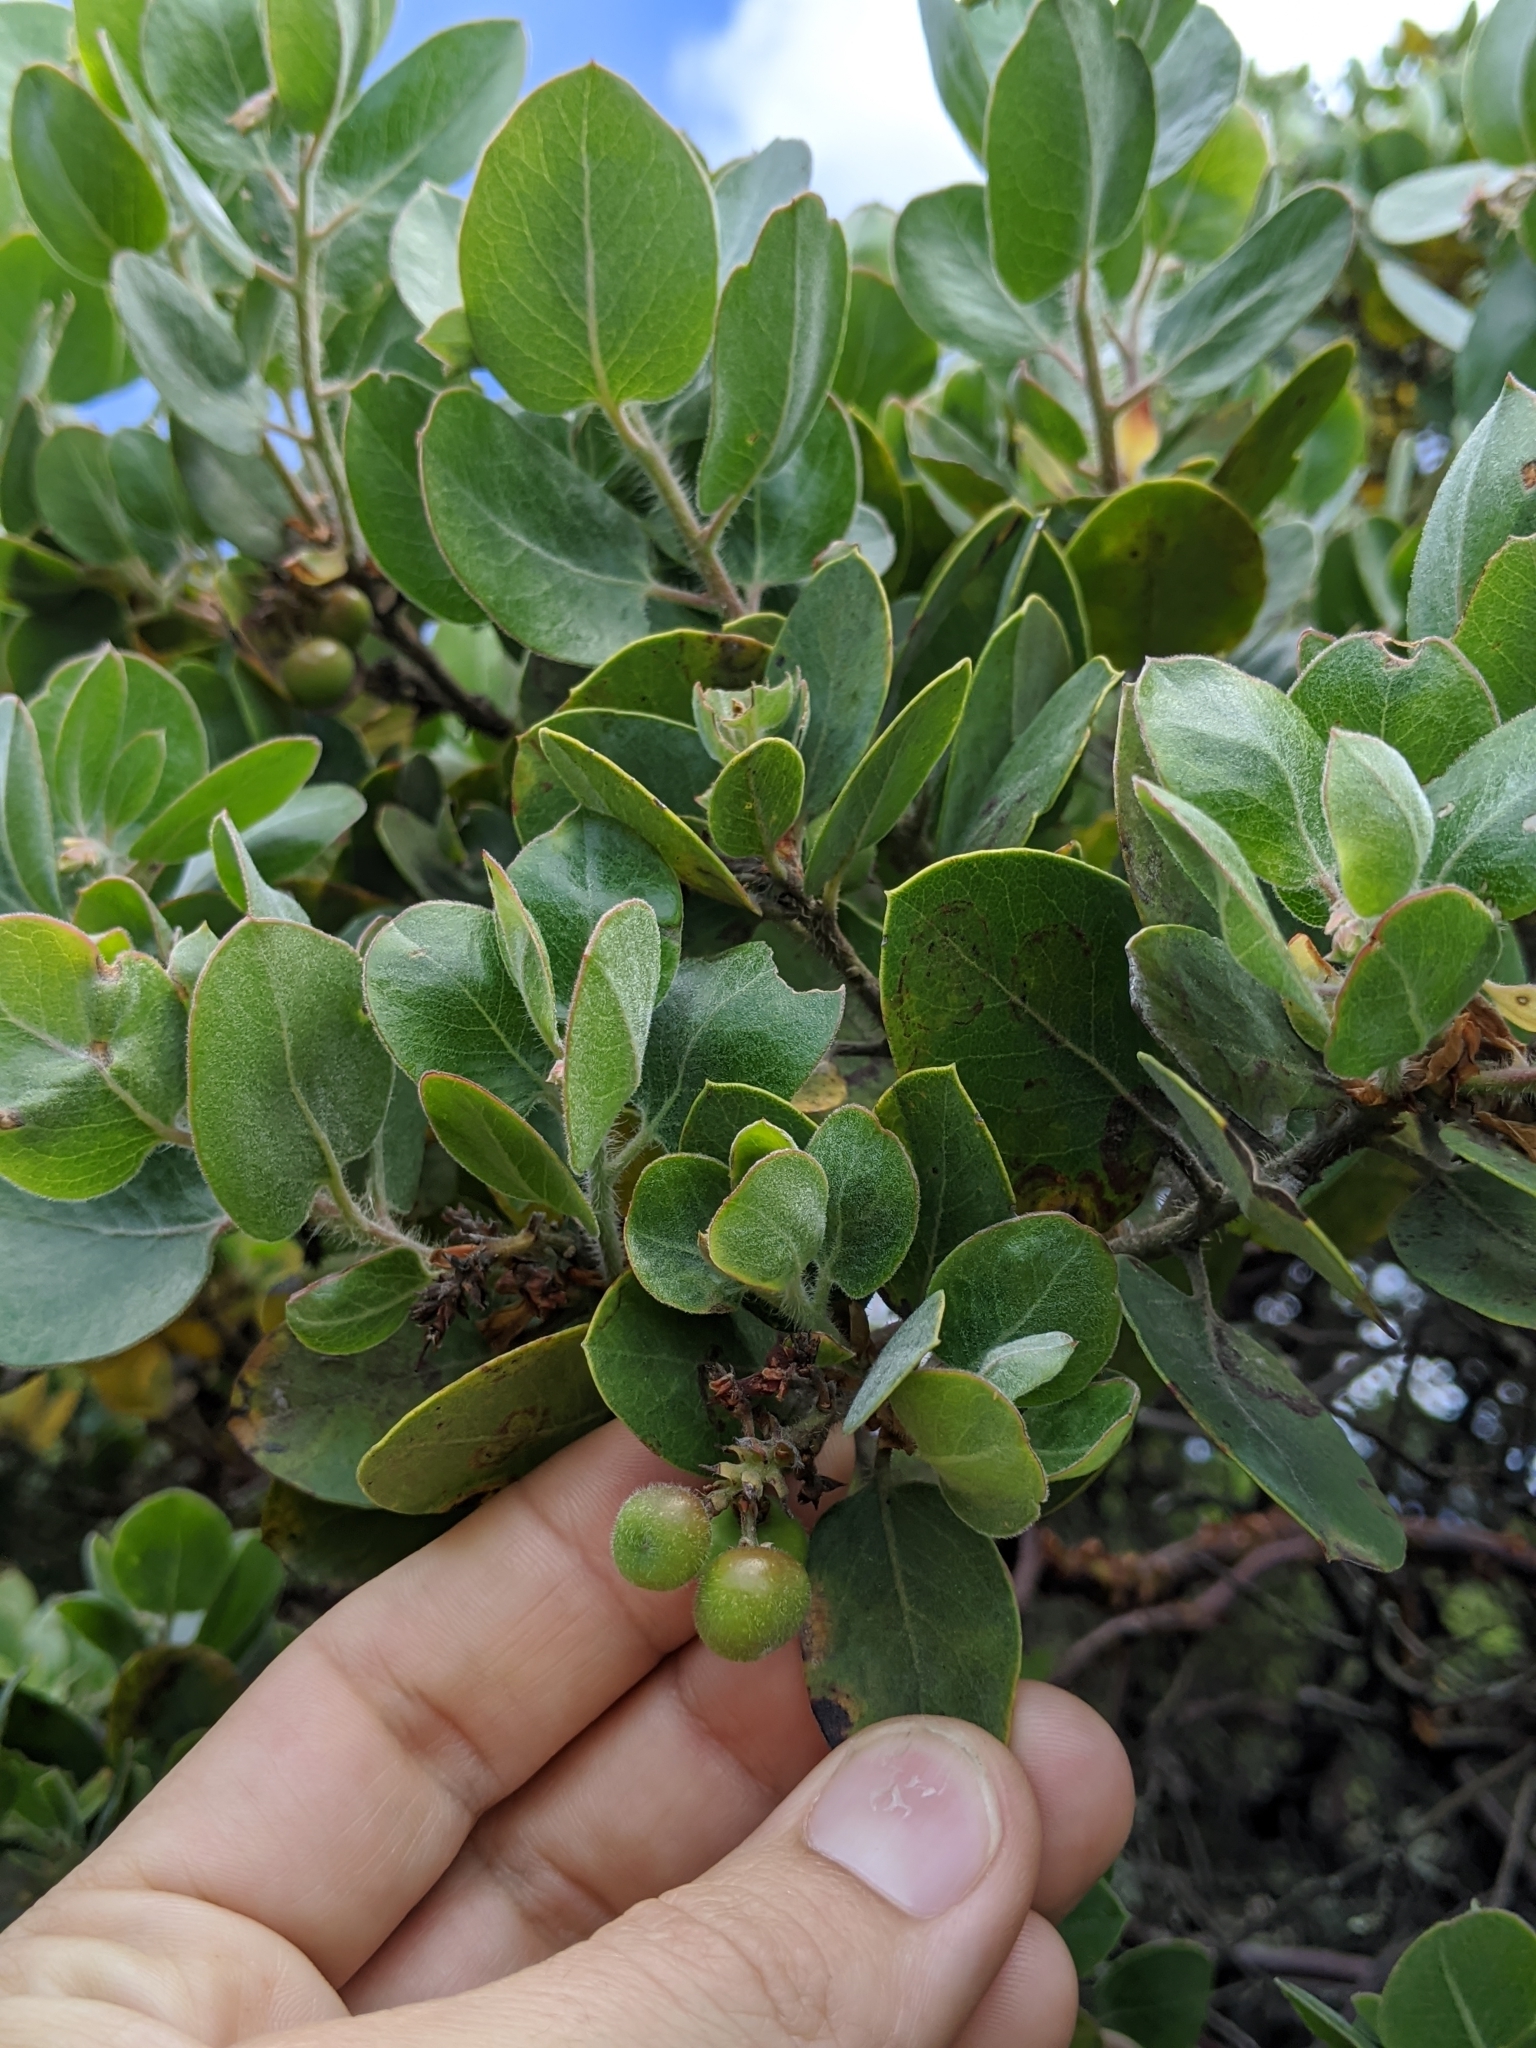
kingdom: Plantae
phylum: Tracheophyta
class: Magnoliopsida
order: Ericales
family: Ericaceae
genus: Arctostaphylos
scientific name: Arctostaphylos crustacea
